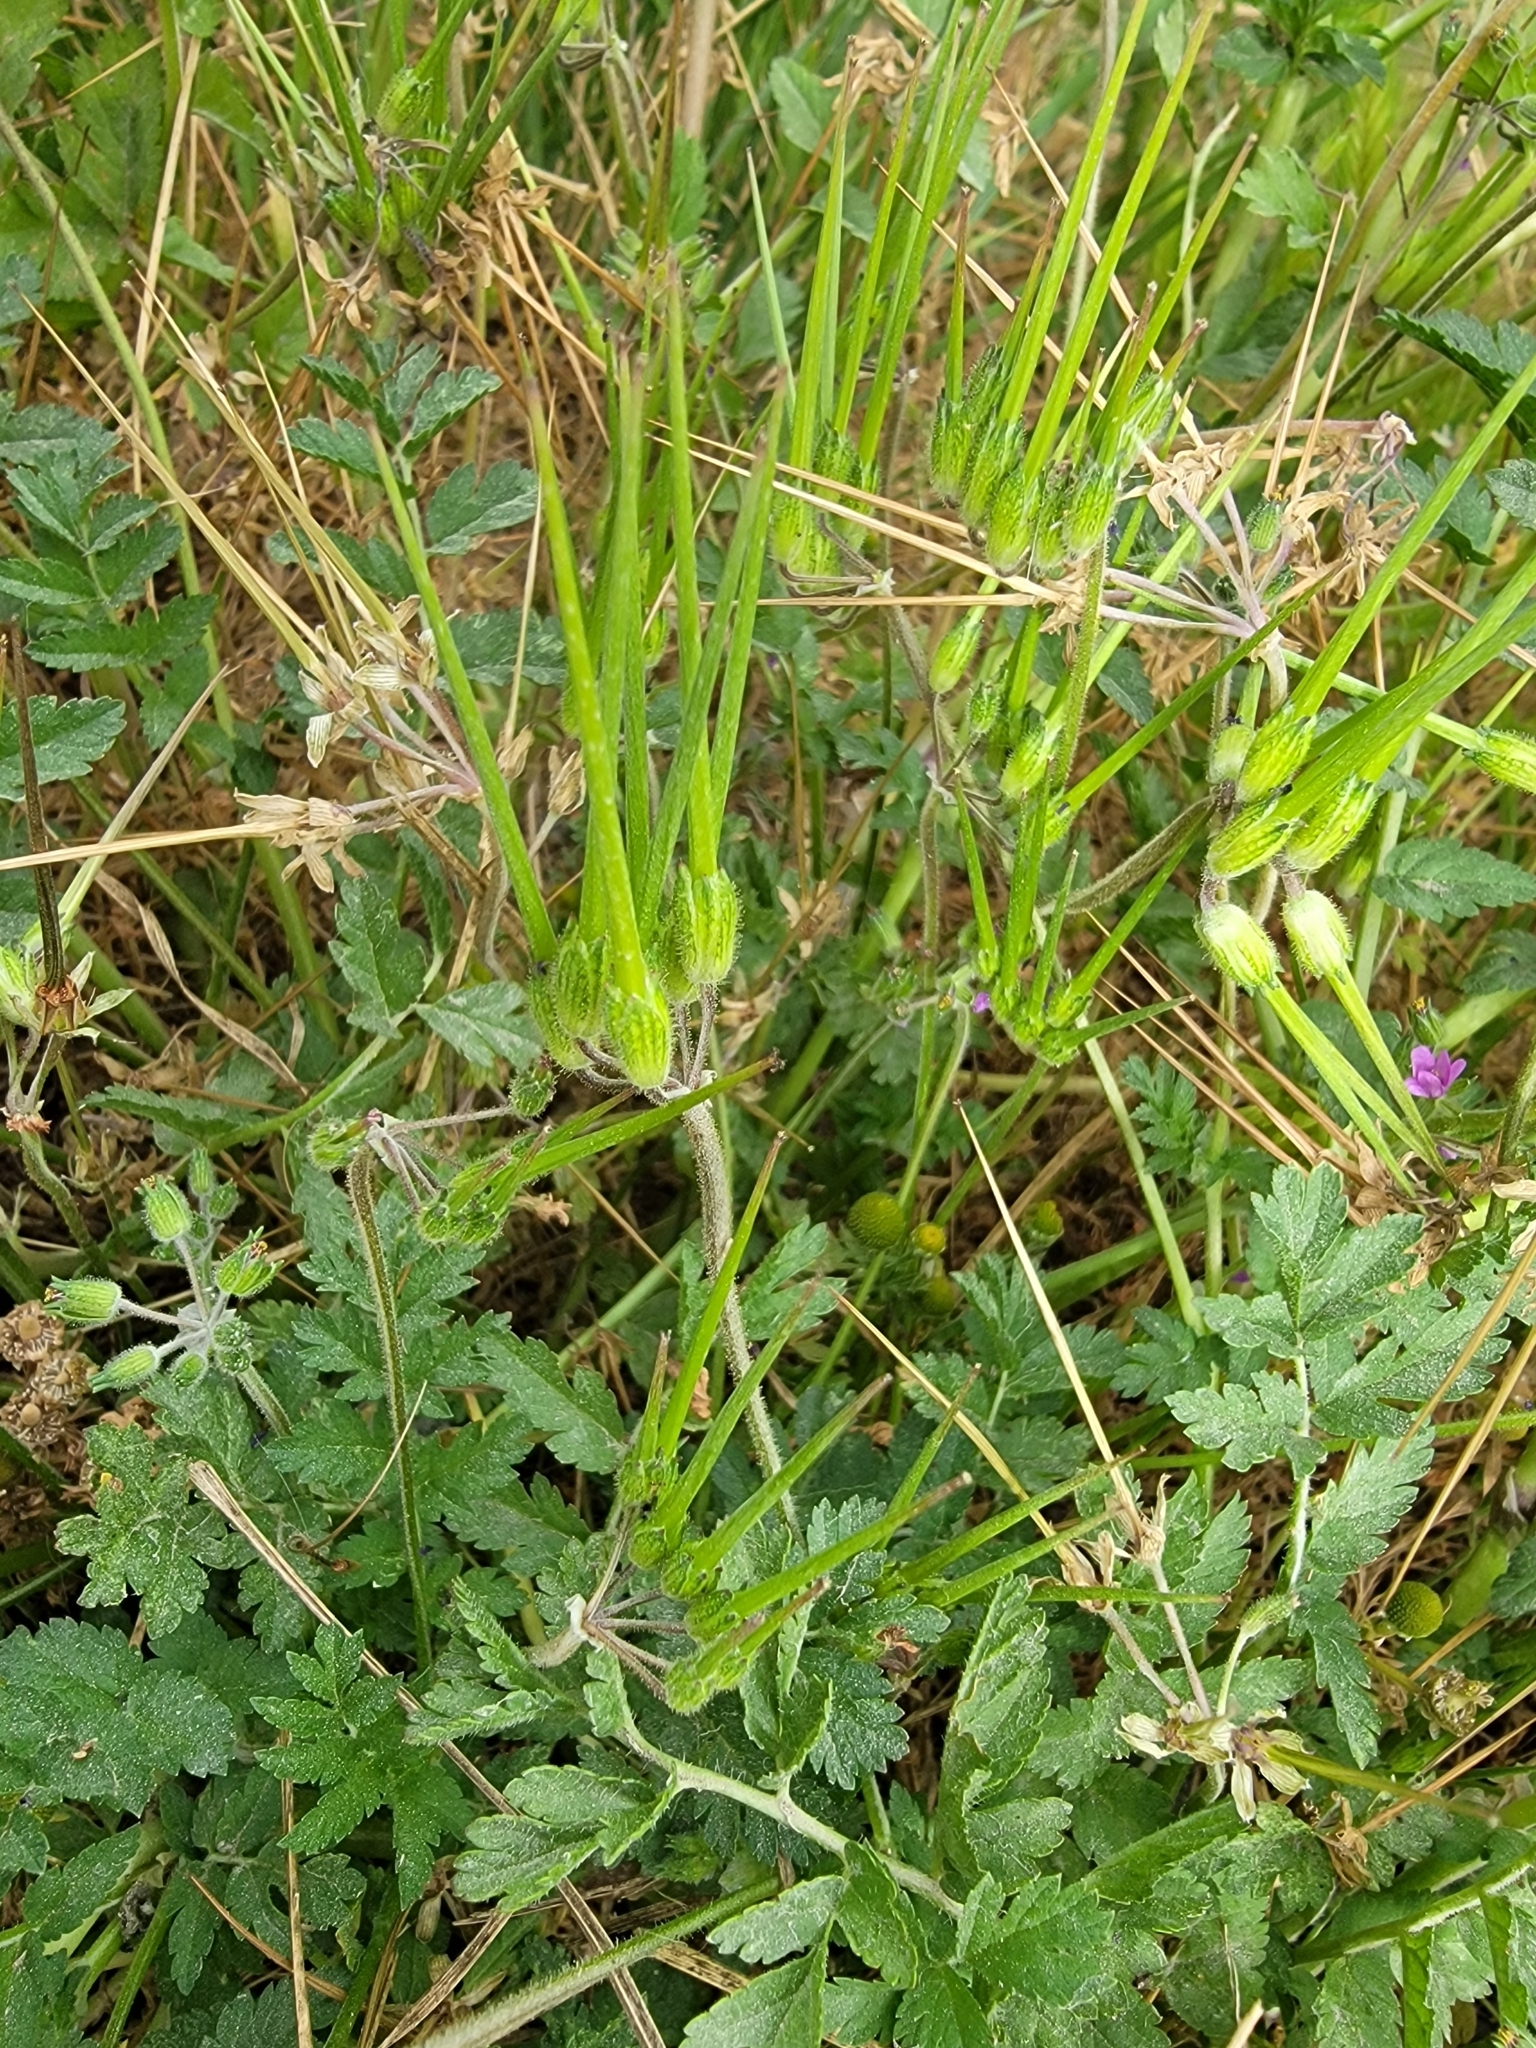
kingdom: Plantae
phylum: Tracheophyta
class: Magnoliopsida
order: Geraniales
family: Geraniaceae
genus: Erodium
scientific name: Erodium moschatum
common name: Musk stork's-bill
